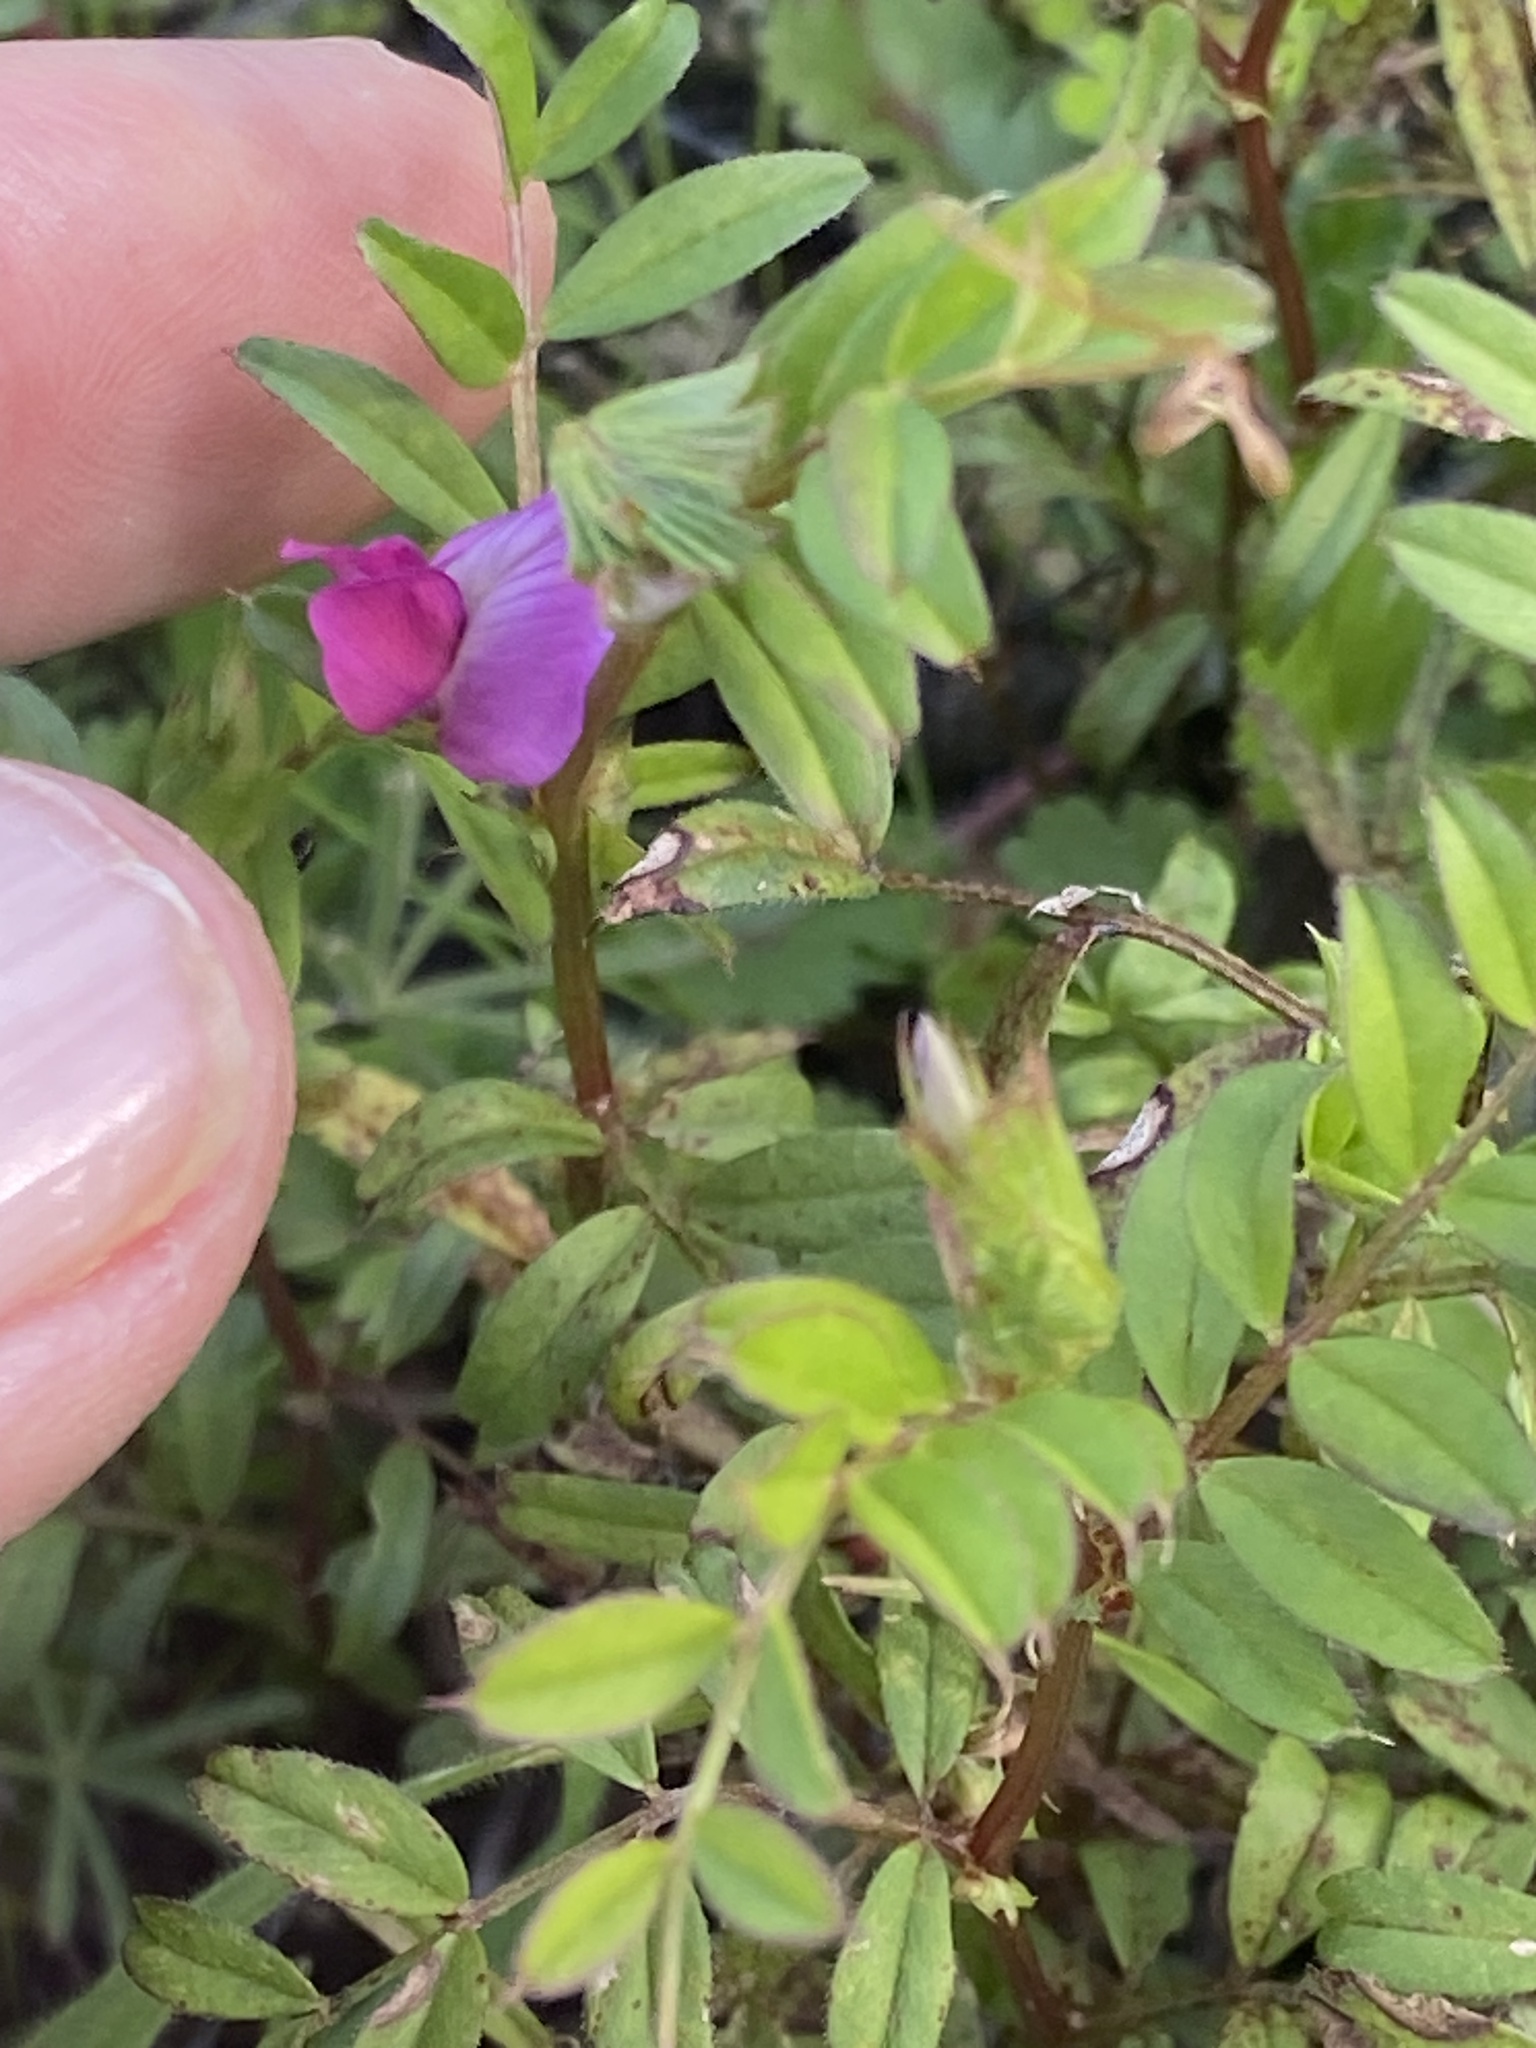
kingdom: Plantae
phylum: Tracheophyta
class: Magnoliopsida
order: Fabales
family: Fabaceae
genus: Vicia
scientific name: Vicia sativa
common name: Garden vetch
